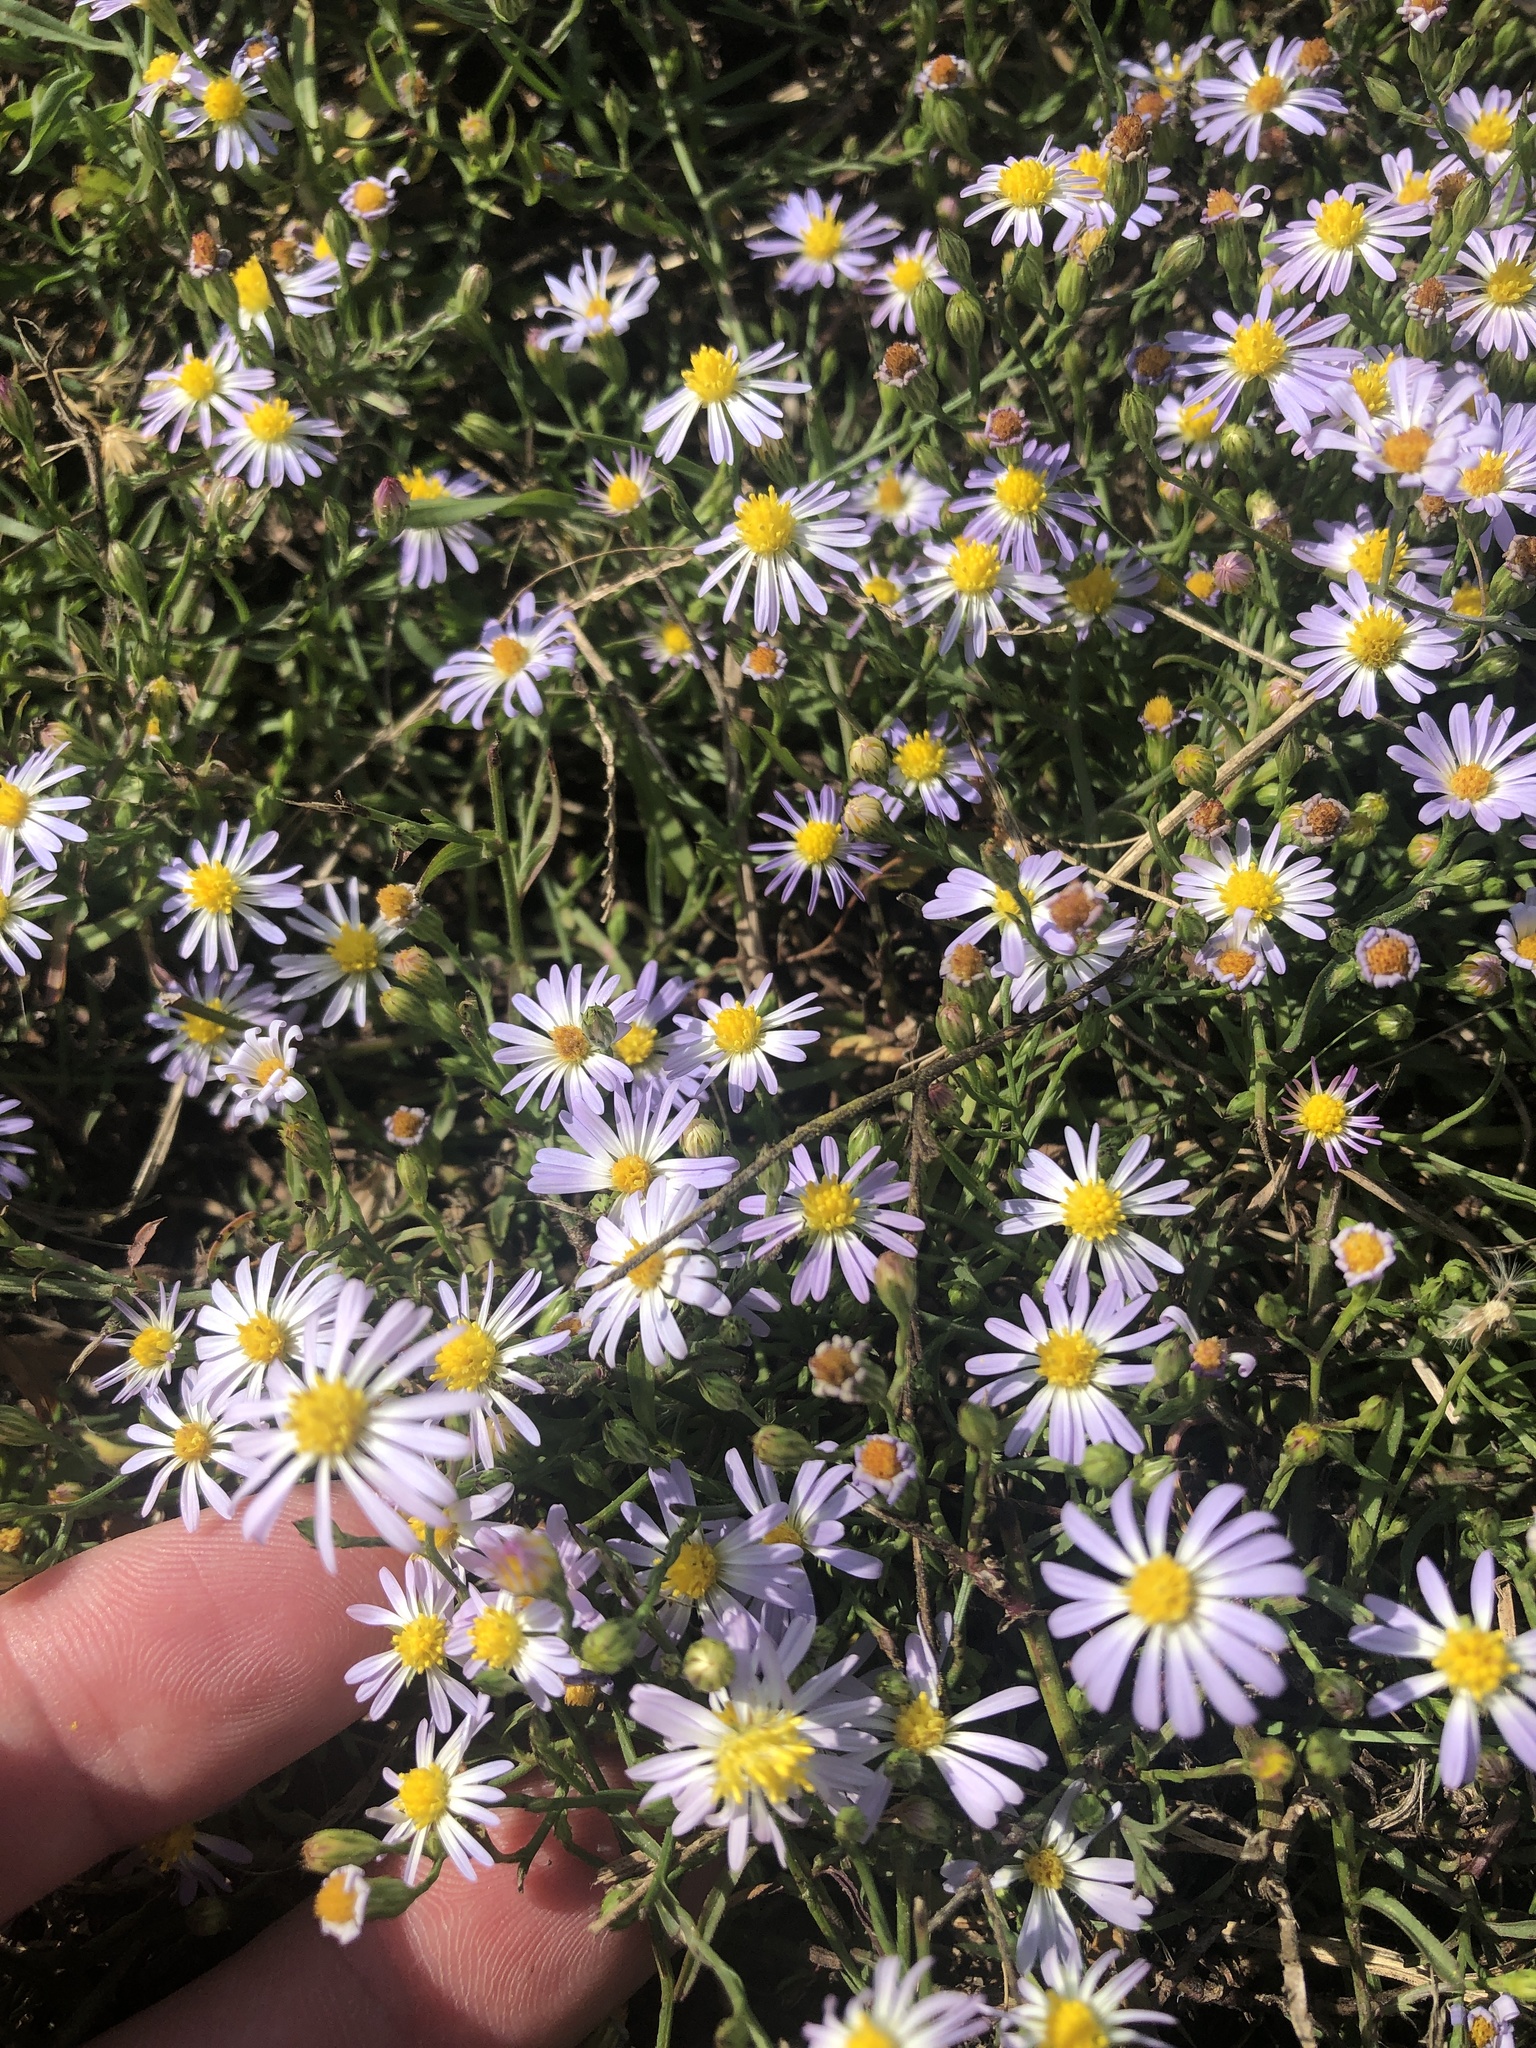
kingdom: Plantae
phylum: Tracheophyta
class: Magnoliopsida
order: Asterales
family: Asteraceae
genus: Symphyotrichum
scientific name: Symphyotrichum divaricatum
